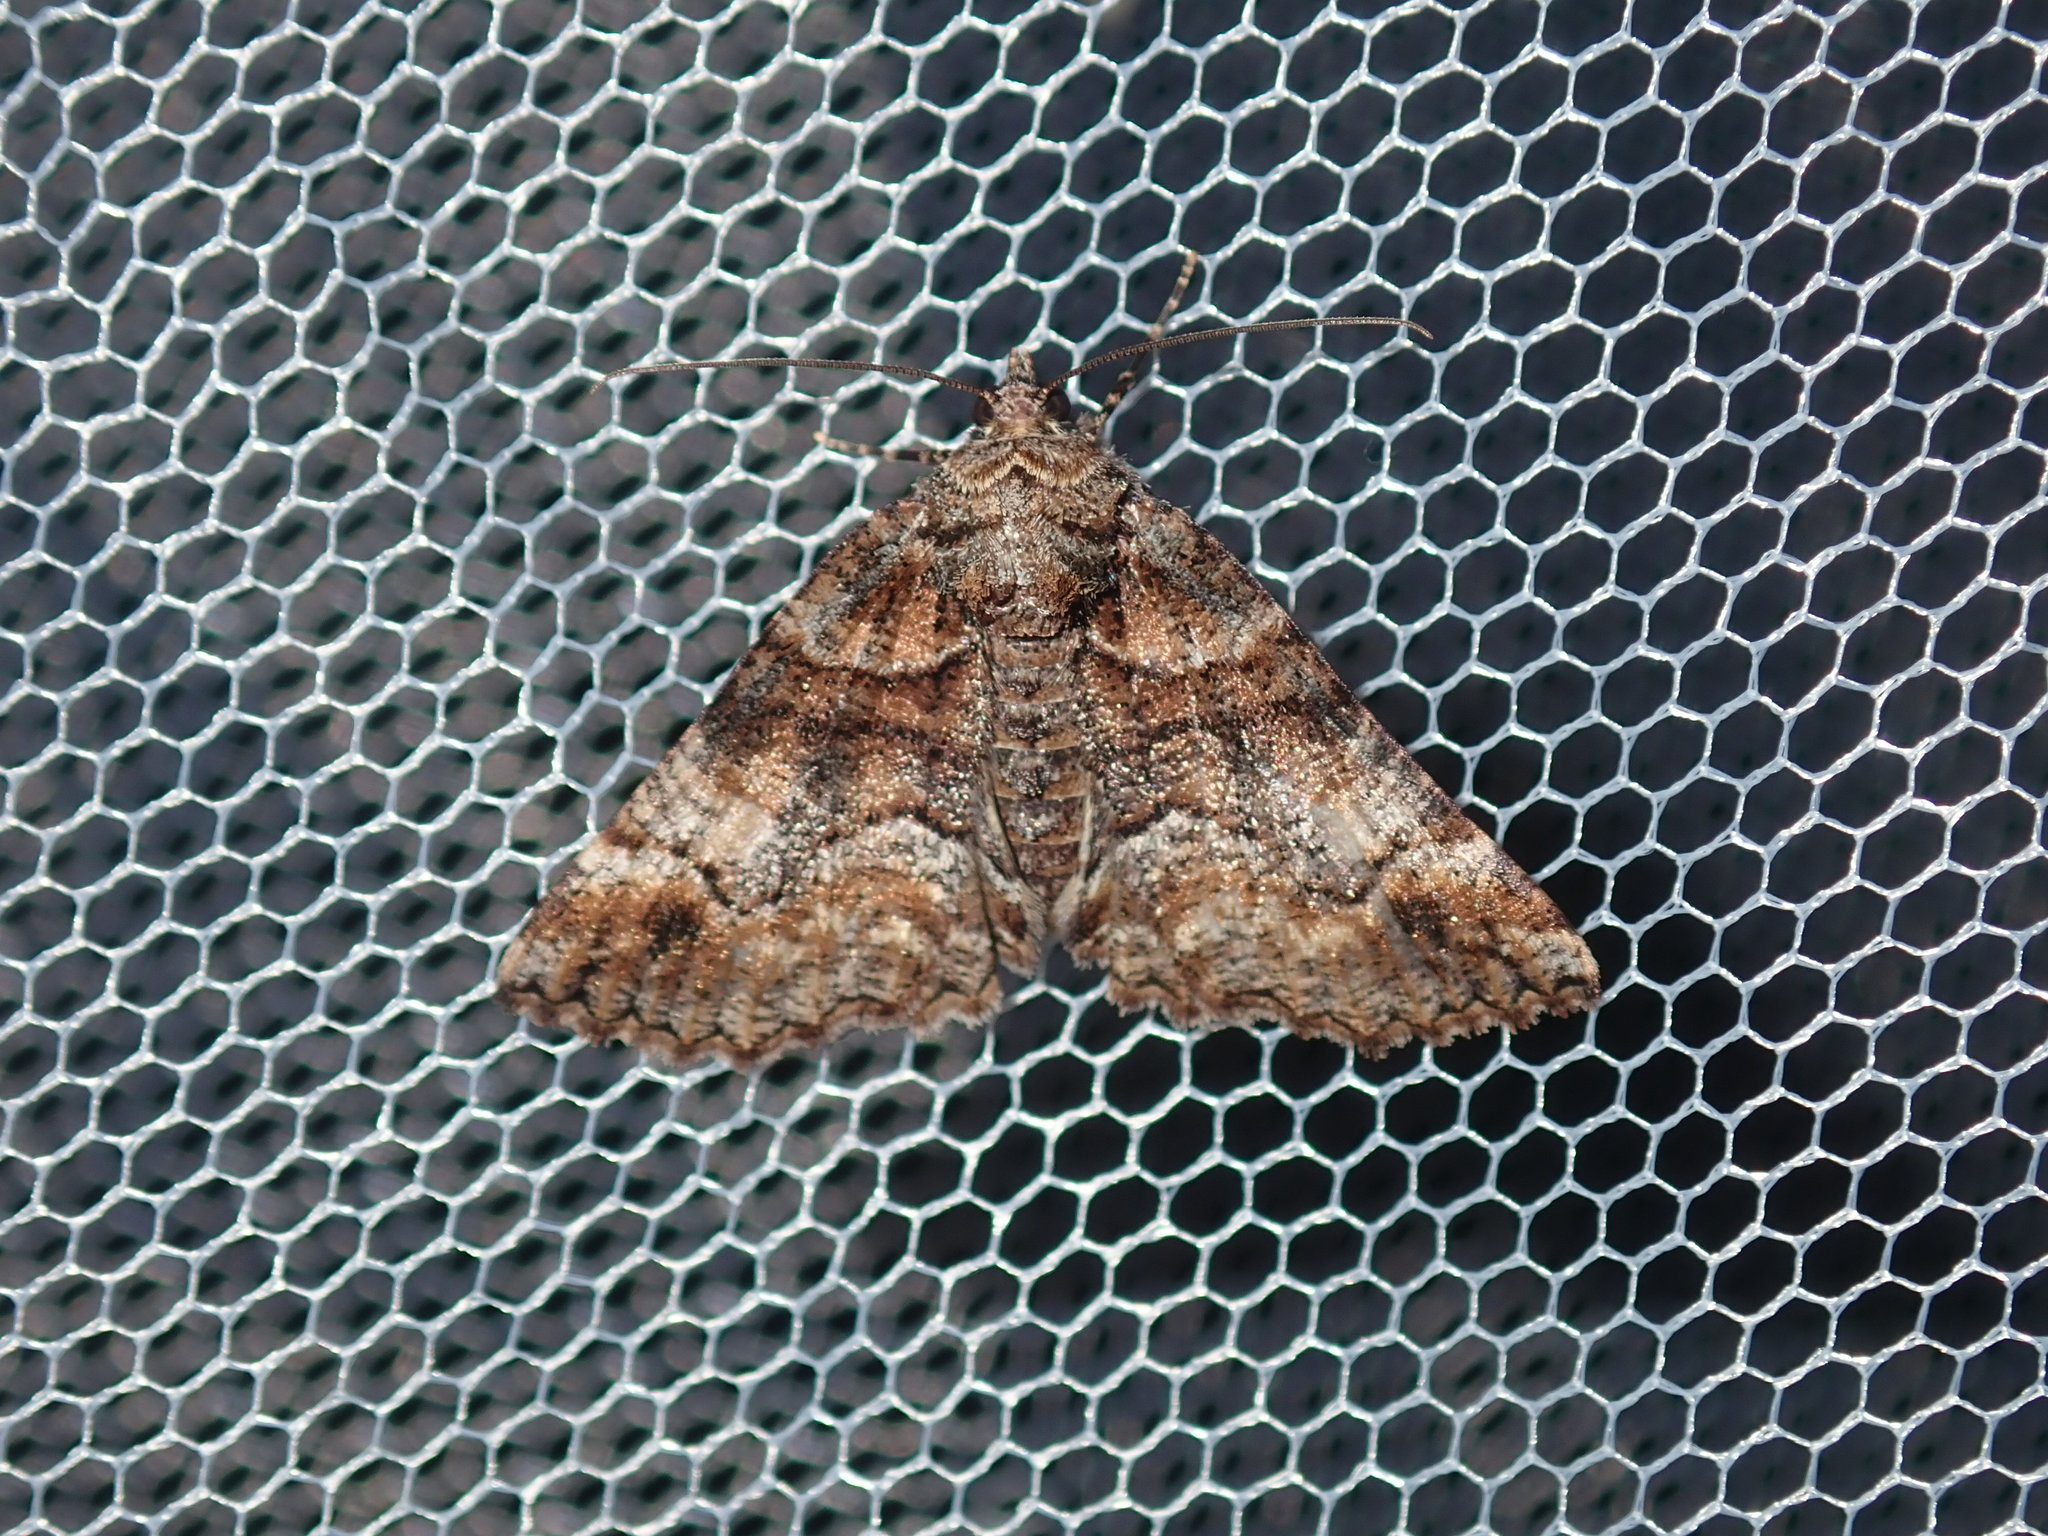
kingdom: Animalia
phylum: Arthropoda
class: Insecta
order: Lepidoptera
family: Geometridae
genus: Gastrina
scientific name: Gastrina cristaria
